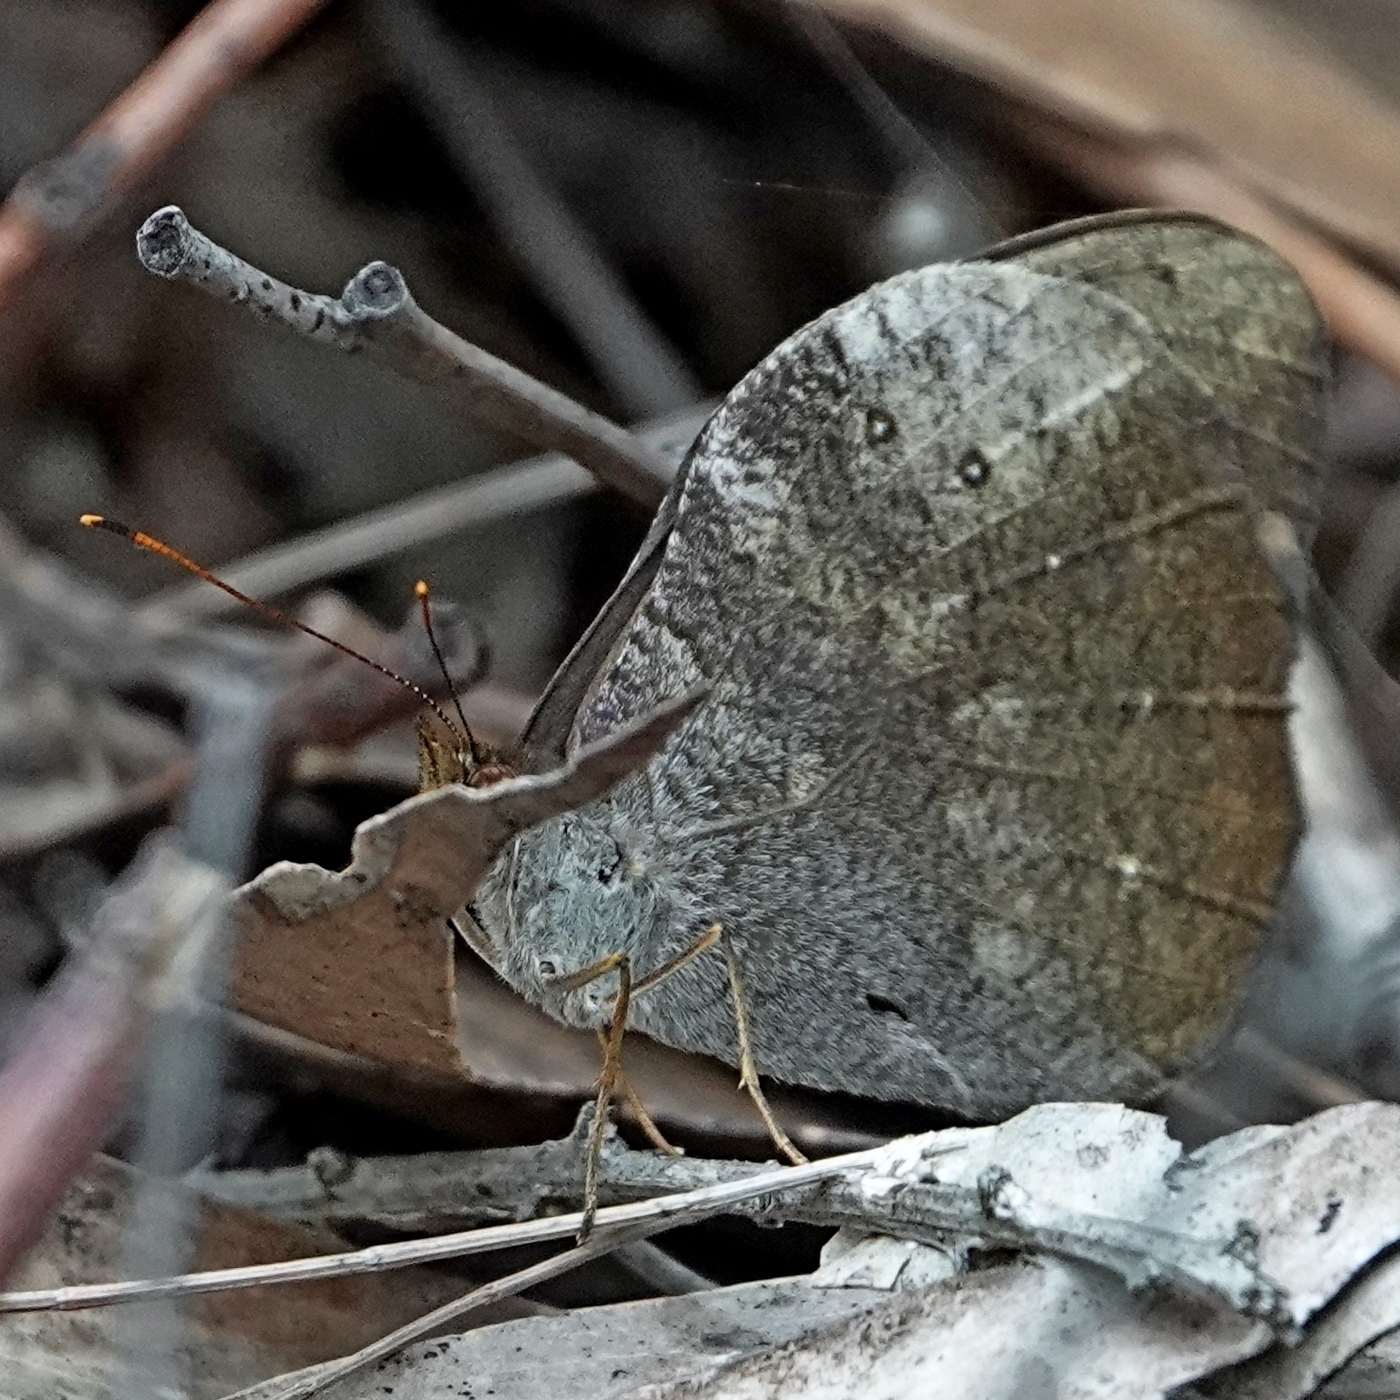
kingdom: Animalia
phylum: Arthropoda
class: Insecta
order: Lepidoptera
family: Nymphalidae
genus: Heteronympha
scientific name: Heteronympha mirifica
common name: Wonder brown
